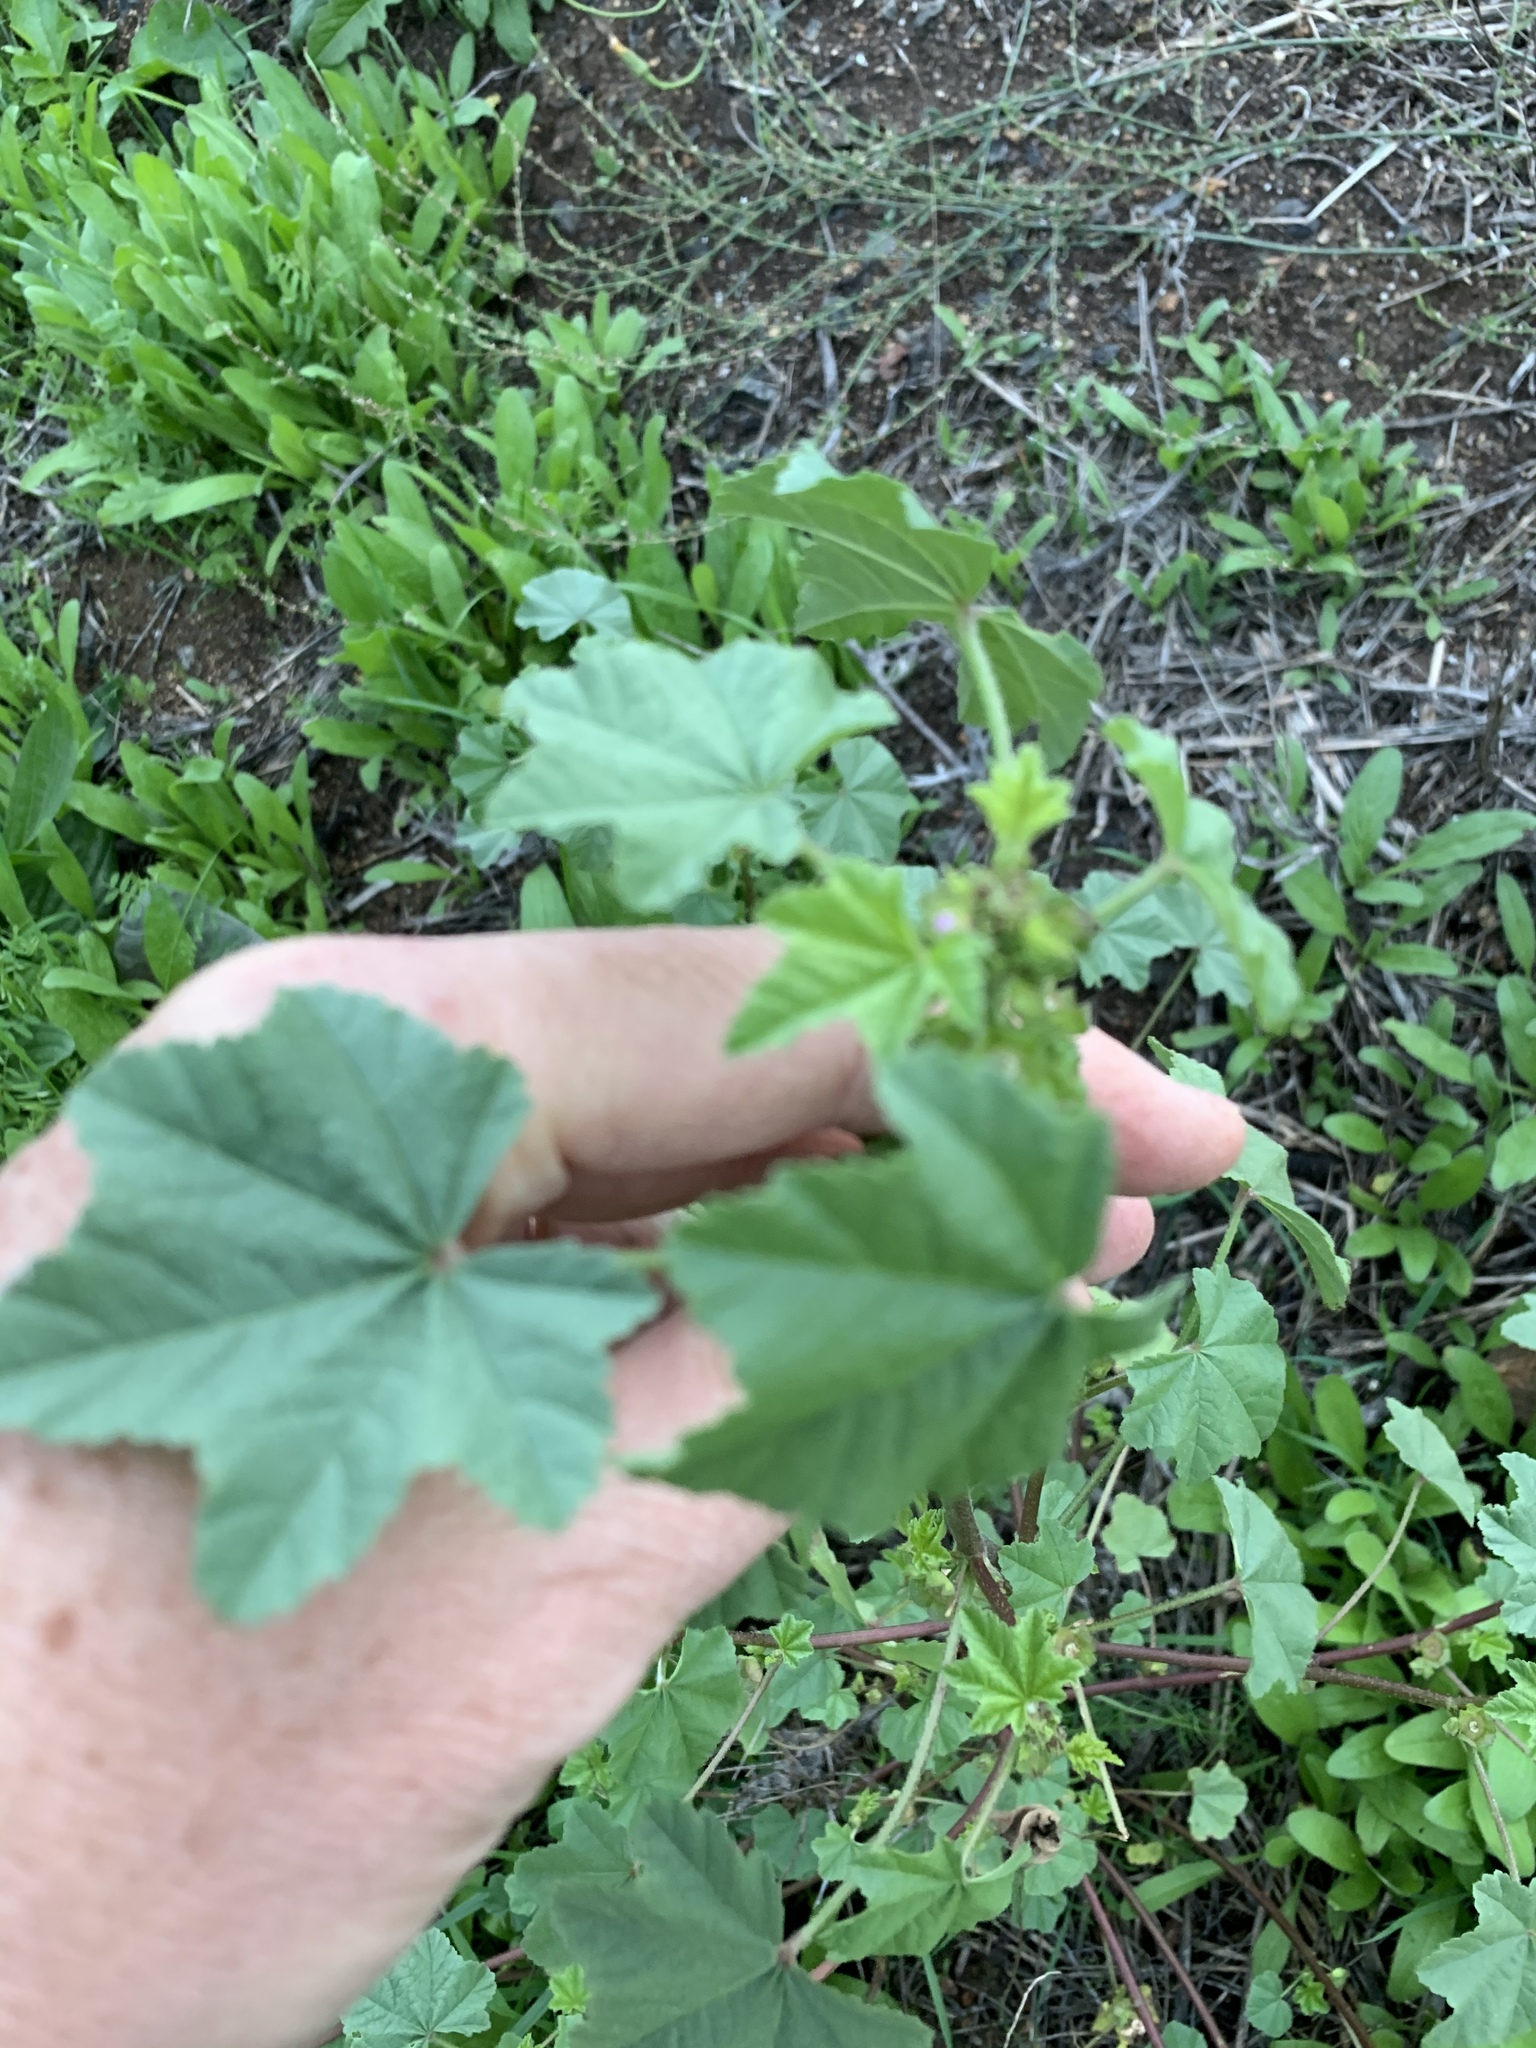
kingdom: Plantae
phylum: Tracheophyta
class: Magnoliopsida
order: Malvales
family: Malvaceae
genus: Malva
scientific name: Malva parviflora
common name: Least mallow
